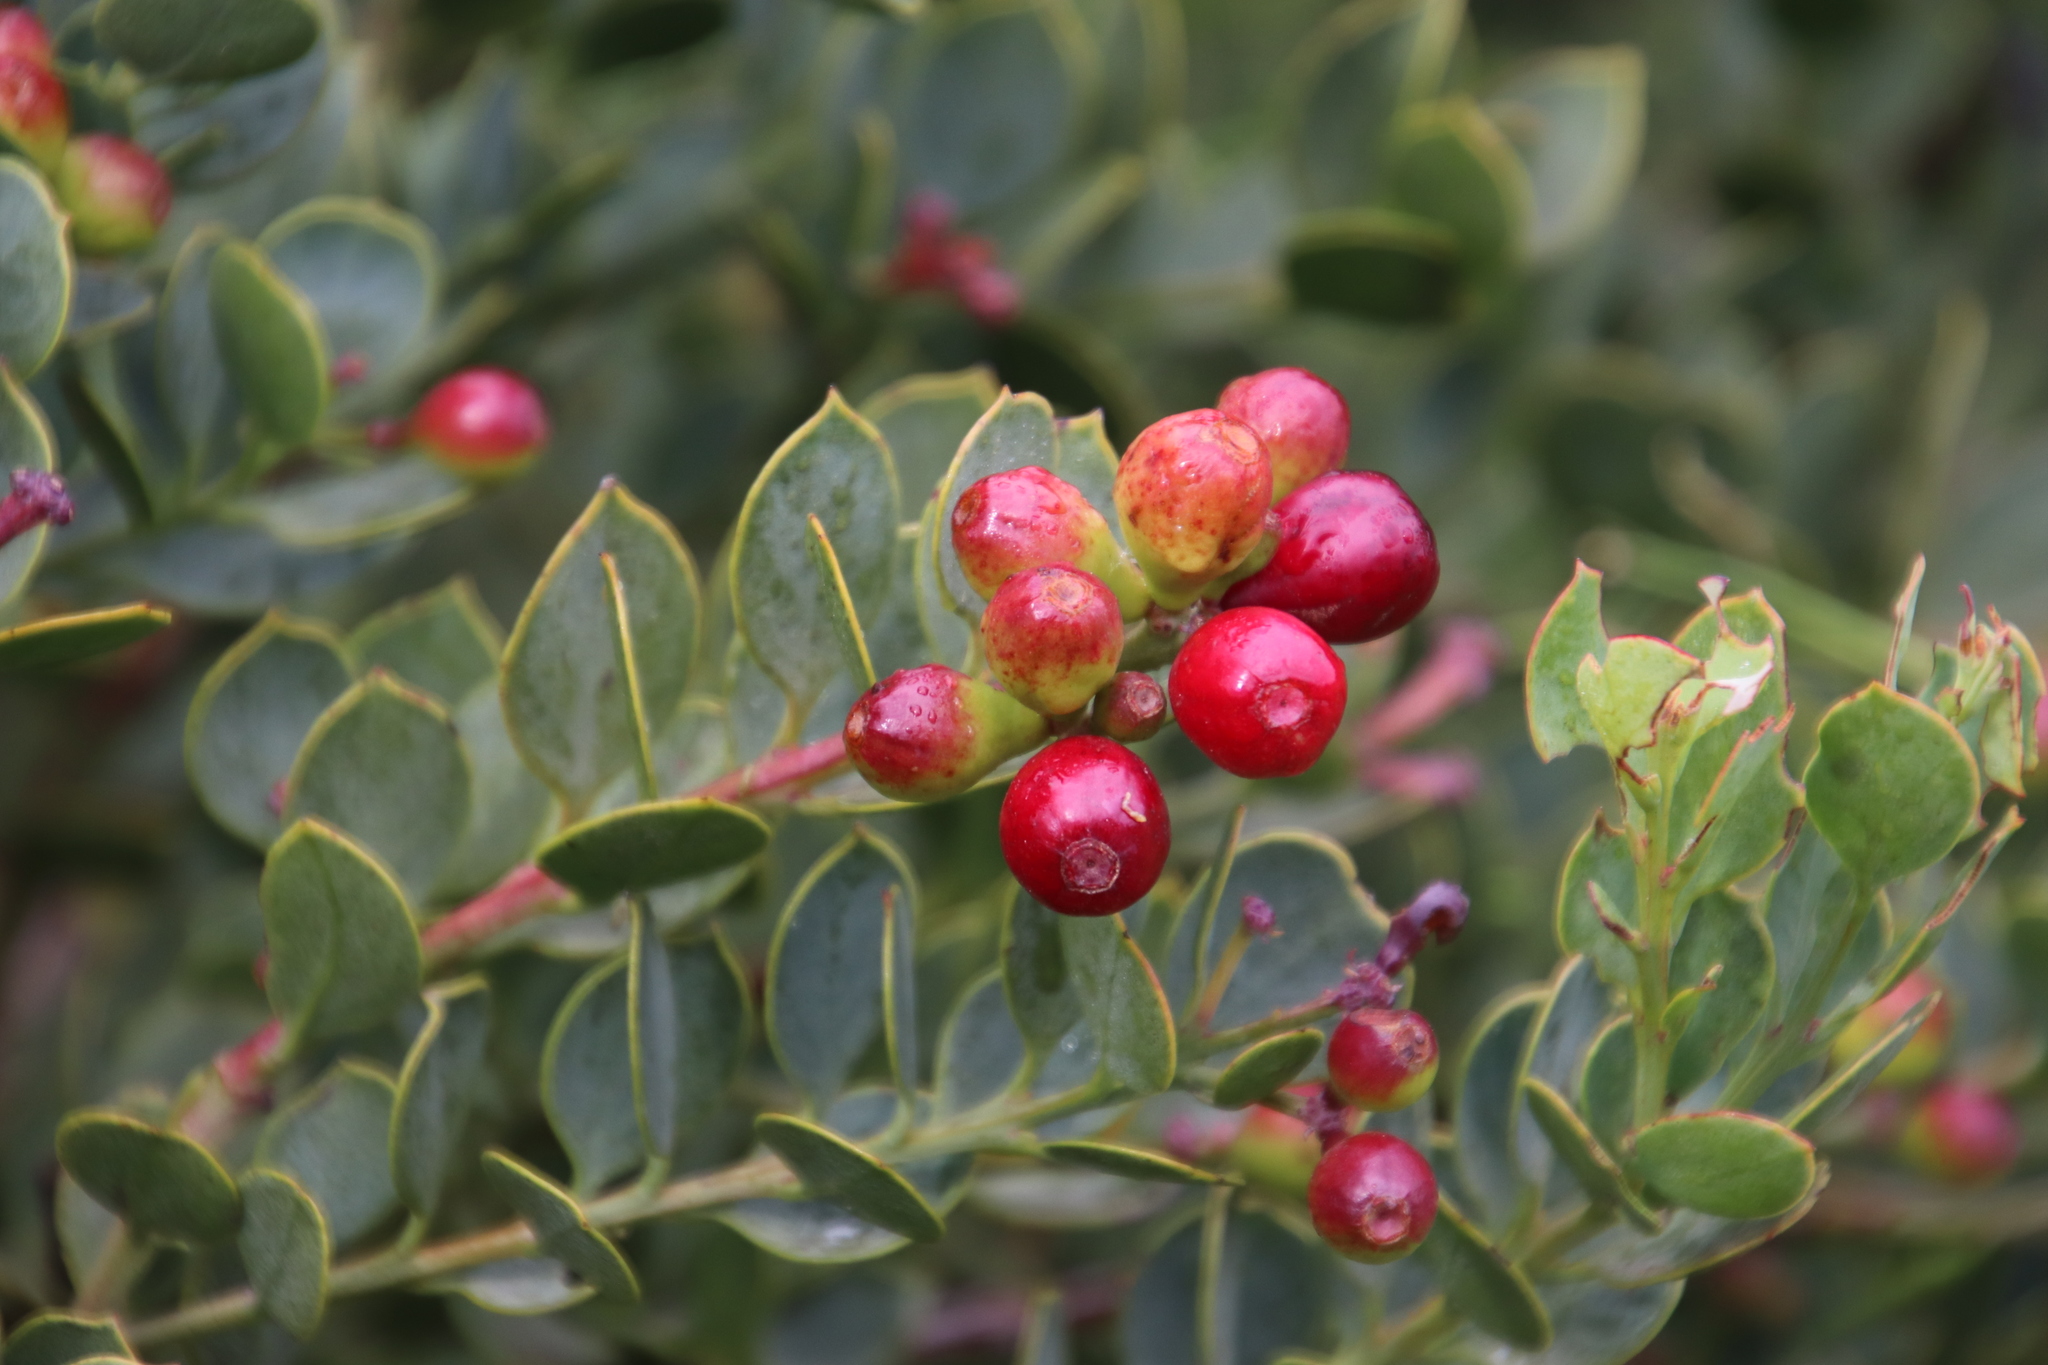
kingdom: Plantae
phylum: Tracheophyta
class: Magnoliopsida
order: Santalales
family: Santalaceae
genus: Osyris
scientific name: Osyris compressa
